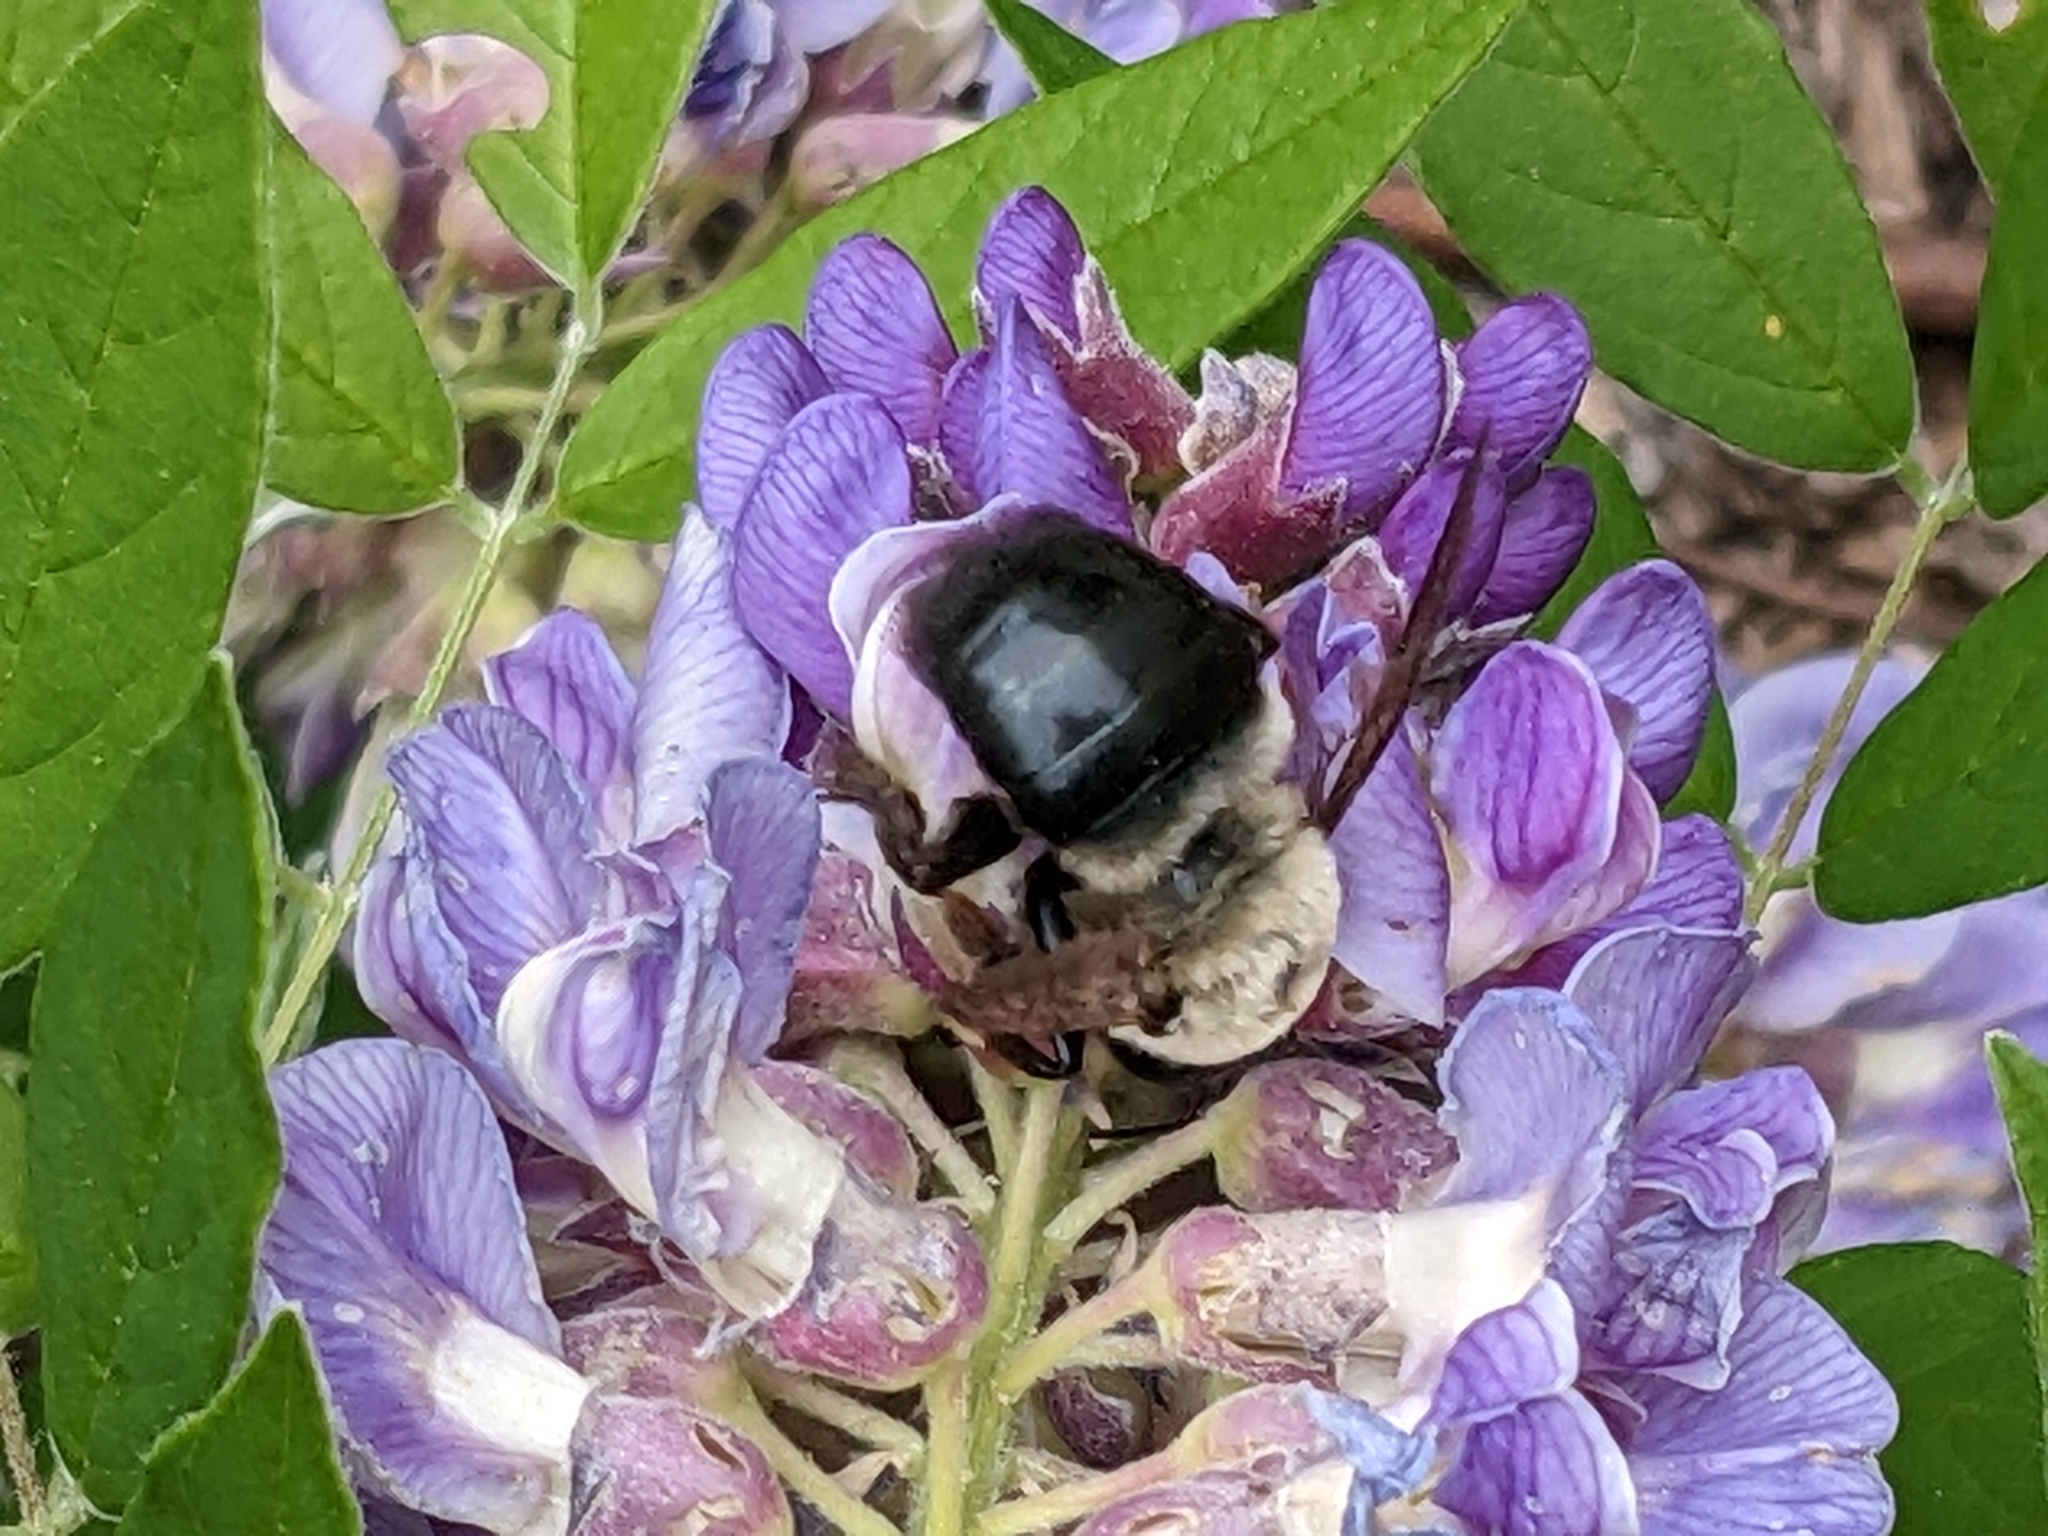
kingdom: Animalia
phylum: Arthropoda
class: Insecta
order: Hymenoptera
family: Apidae
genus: Xylocopa
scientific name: Xylocopa virginica
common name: Carpenter bee
